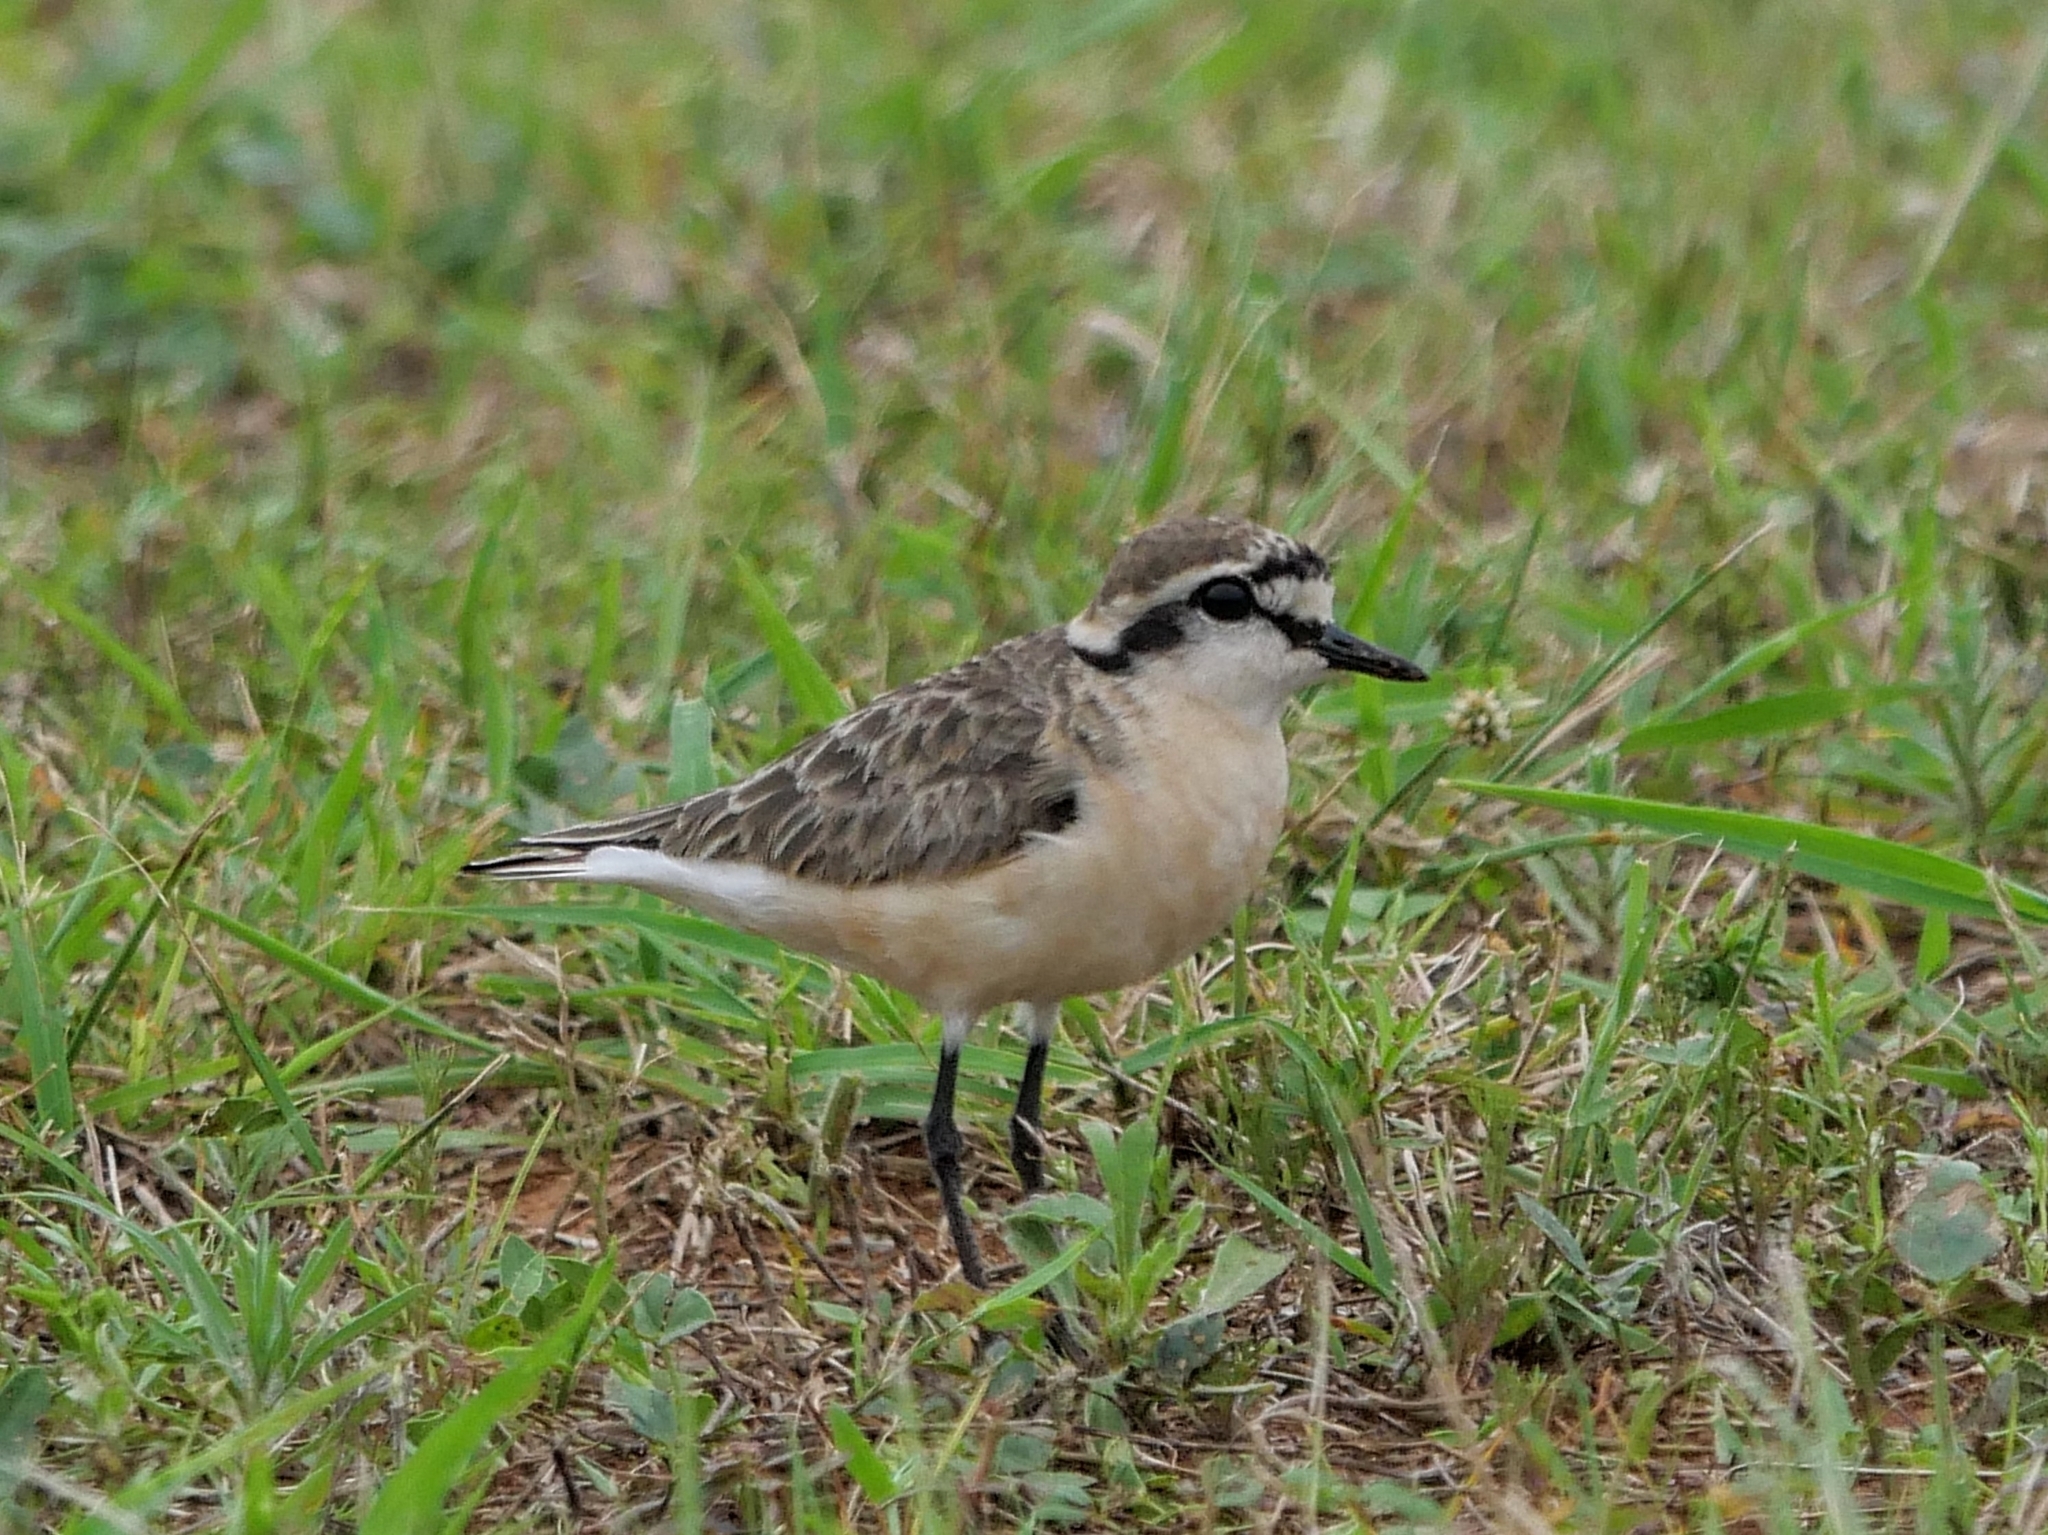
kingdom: Animalia
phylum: Chordata
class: Aves
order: Charadriiformes
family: Charadriidae
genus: Anarhynchus
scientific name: Anarhynchus
